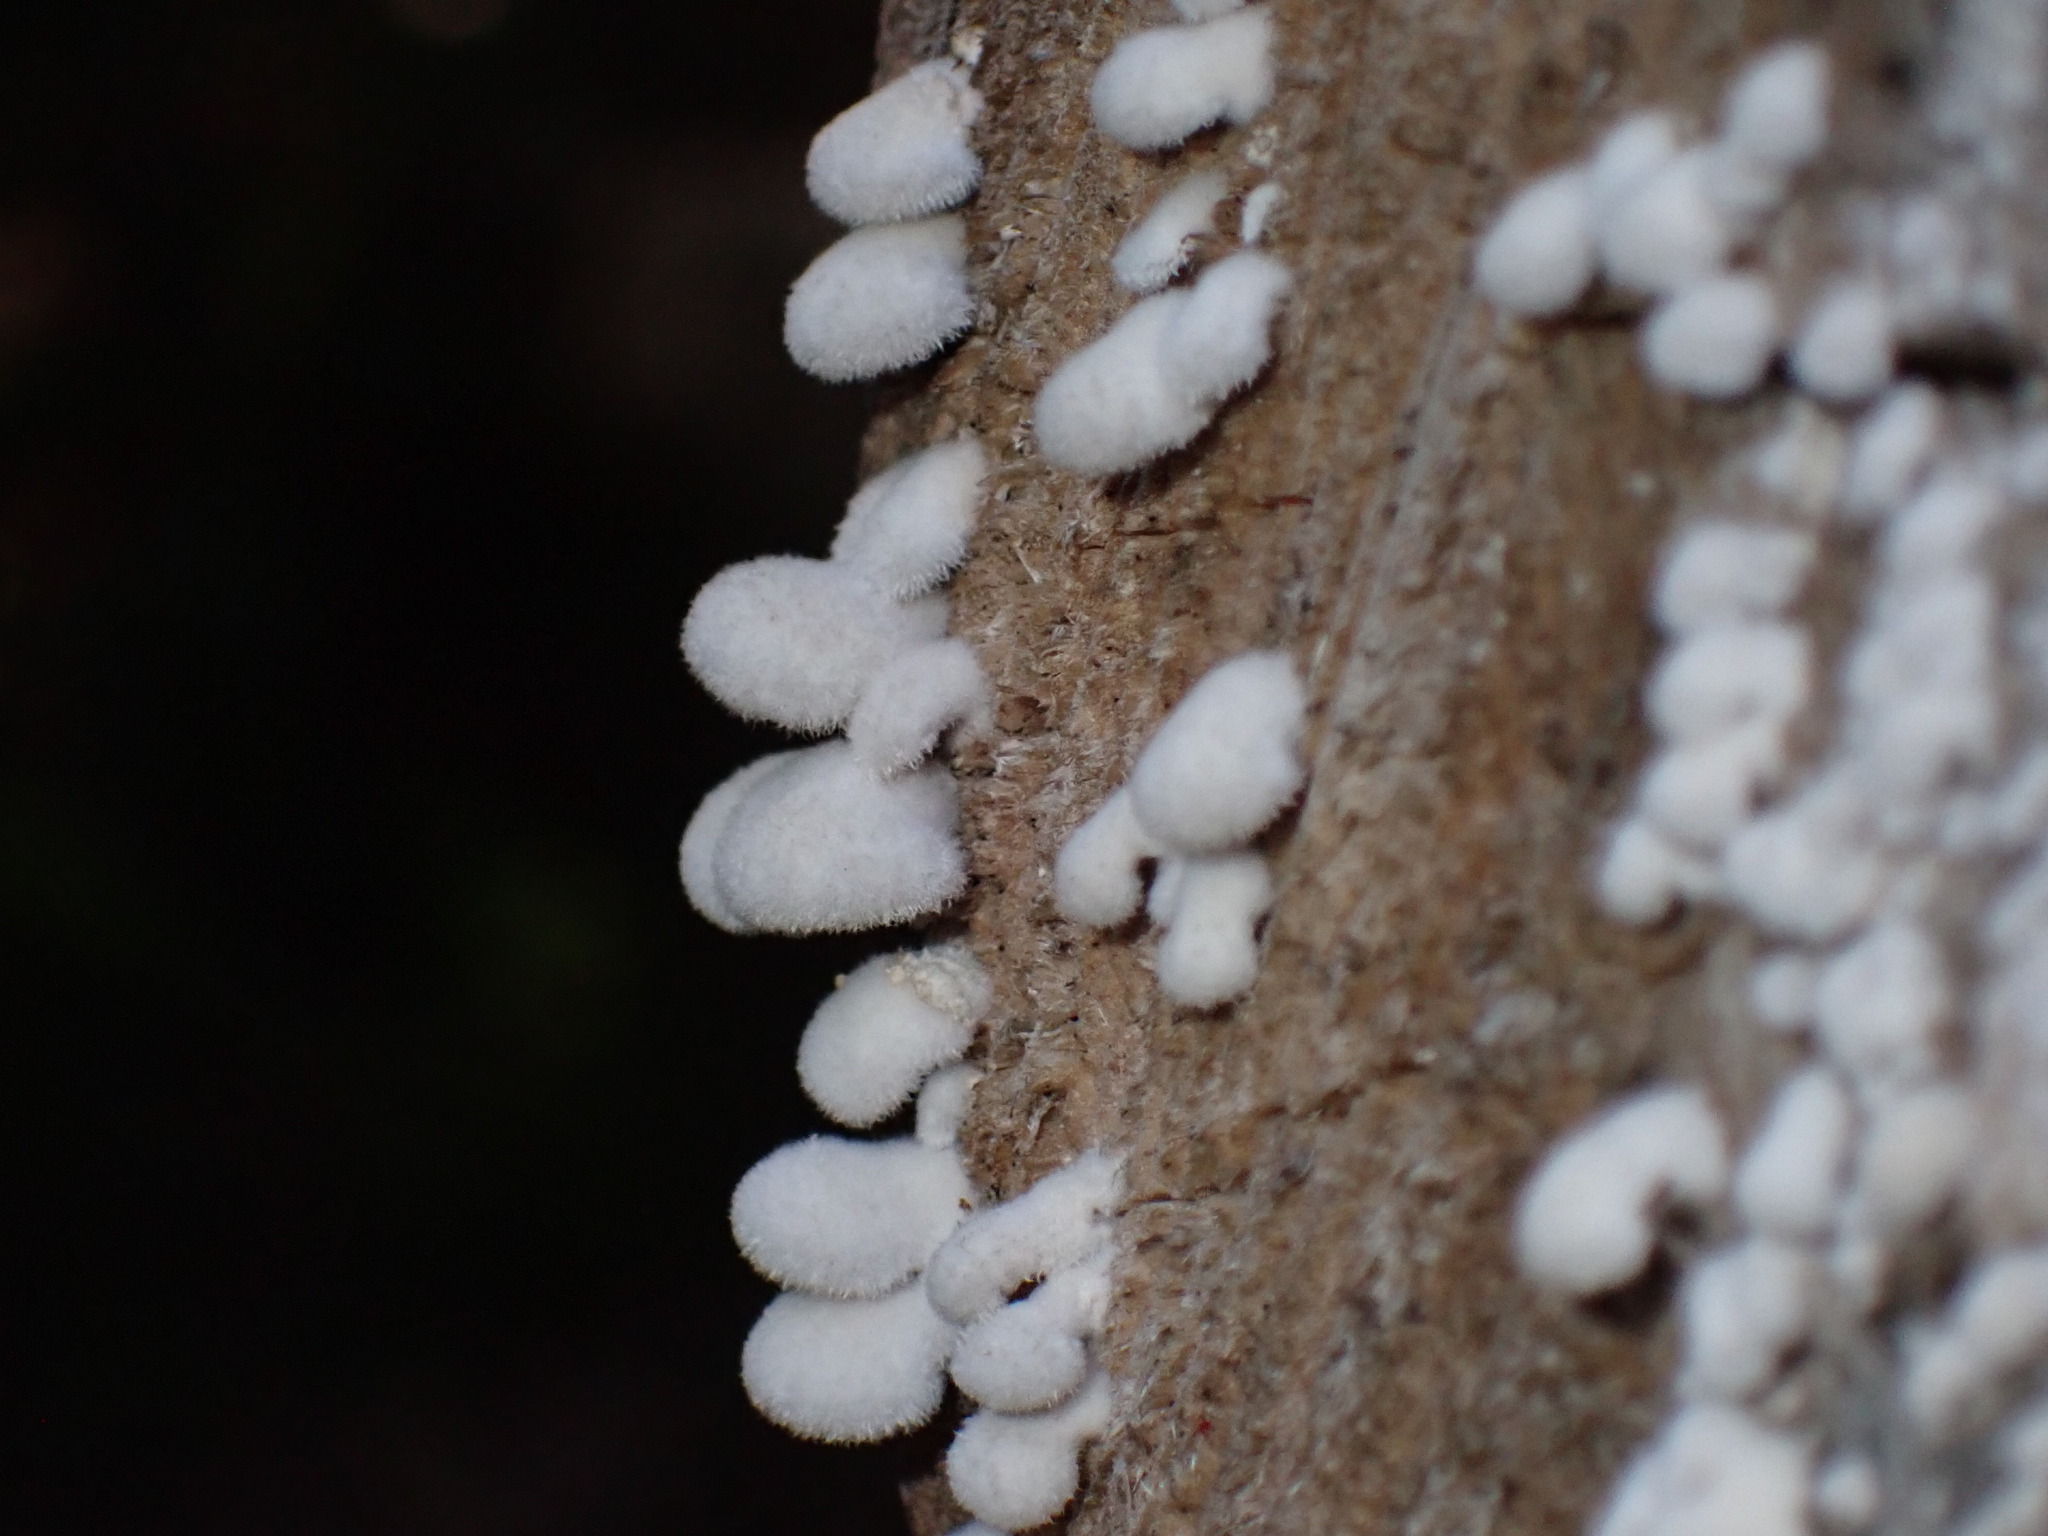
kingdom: Fungi
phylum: Basidiomycota
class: Agaricomycetes
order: Agaricales
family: Schizophyllaceae
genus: Schizophyllum
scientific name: Schizophyllum commune
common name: Common porecrust
